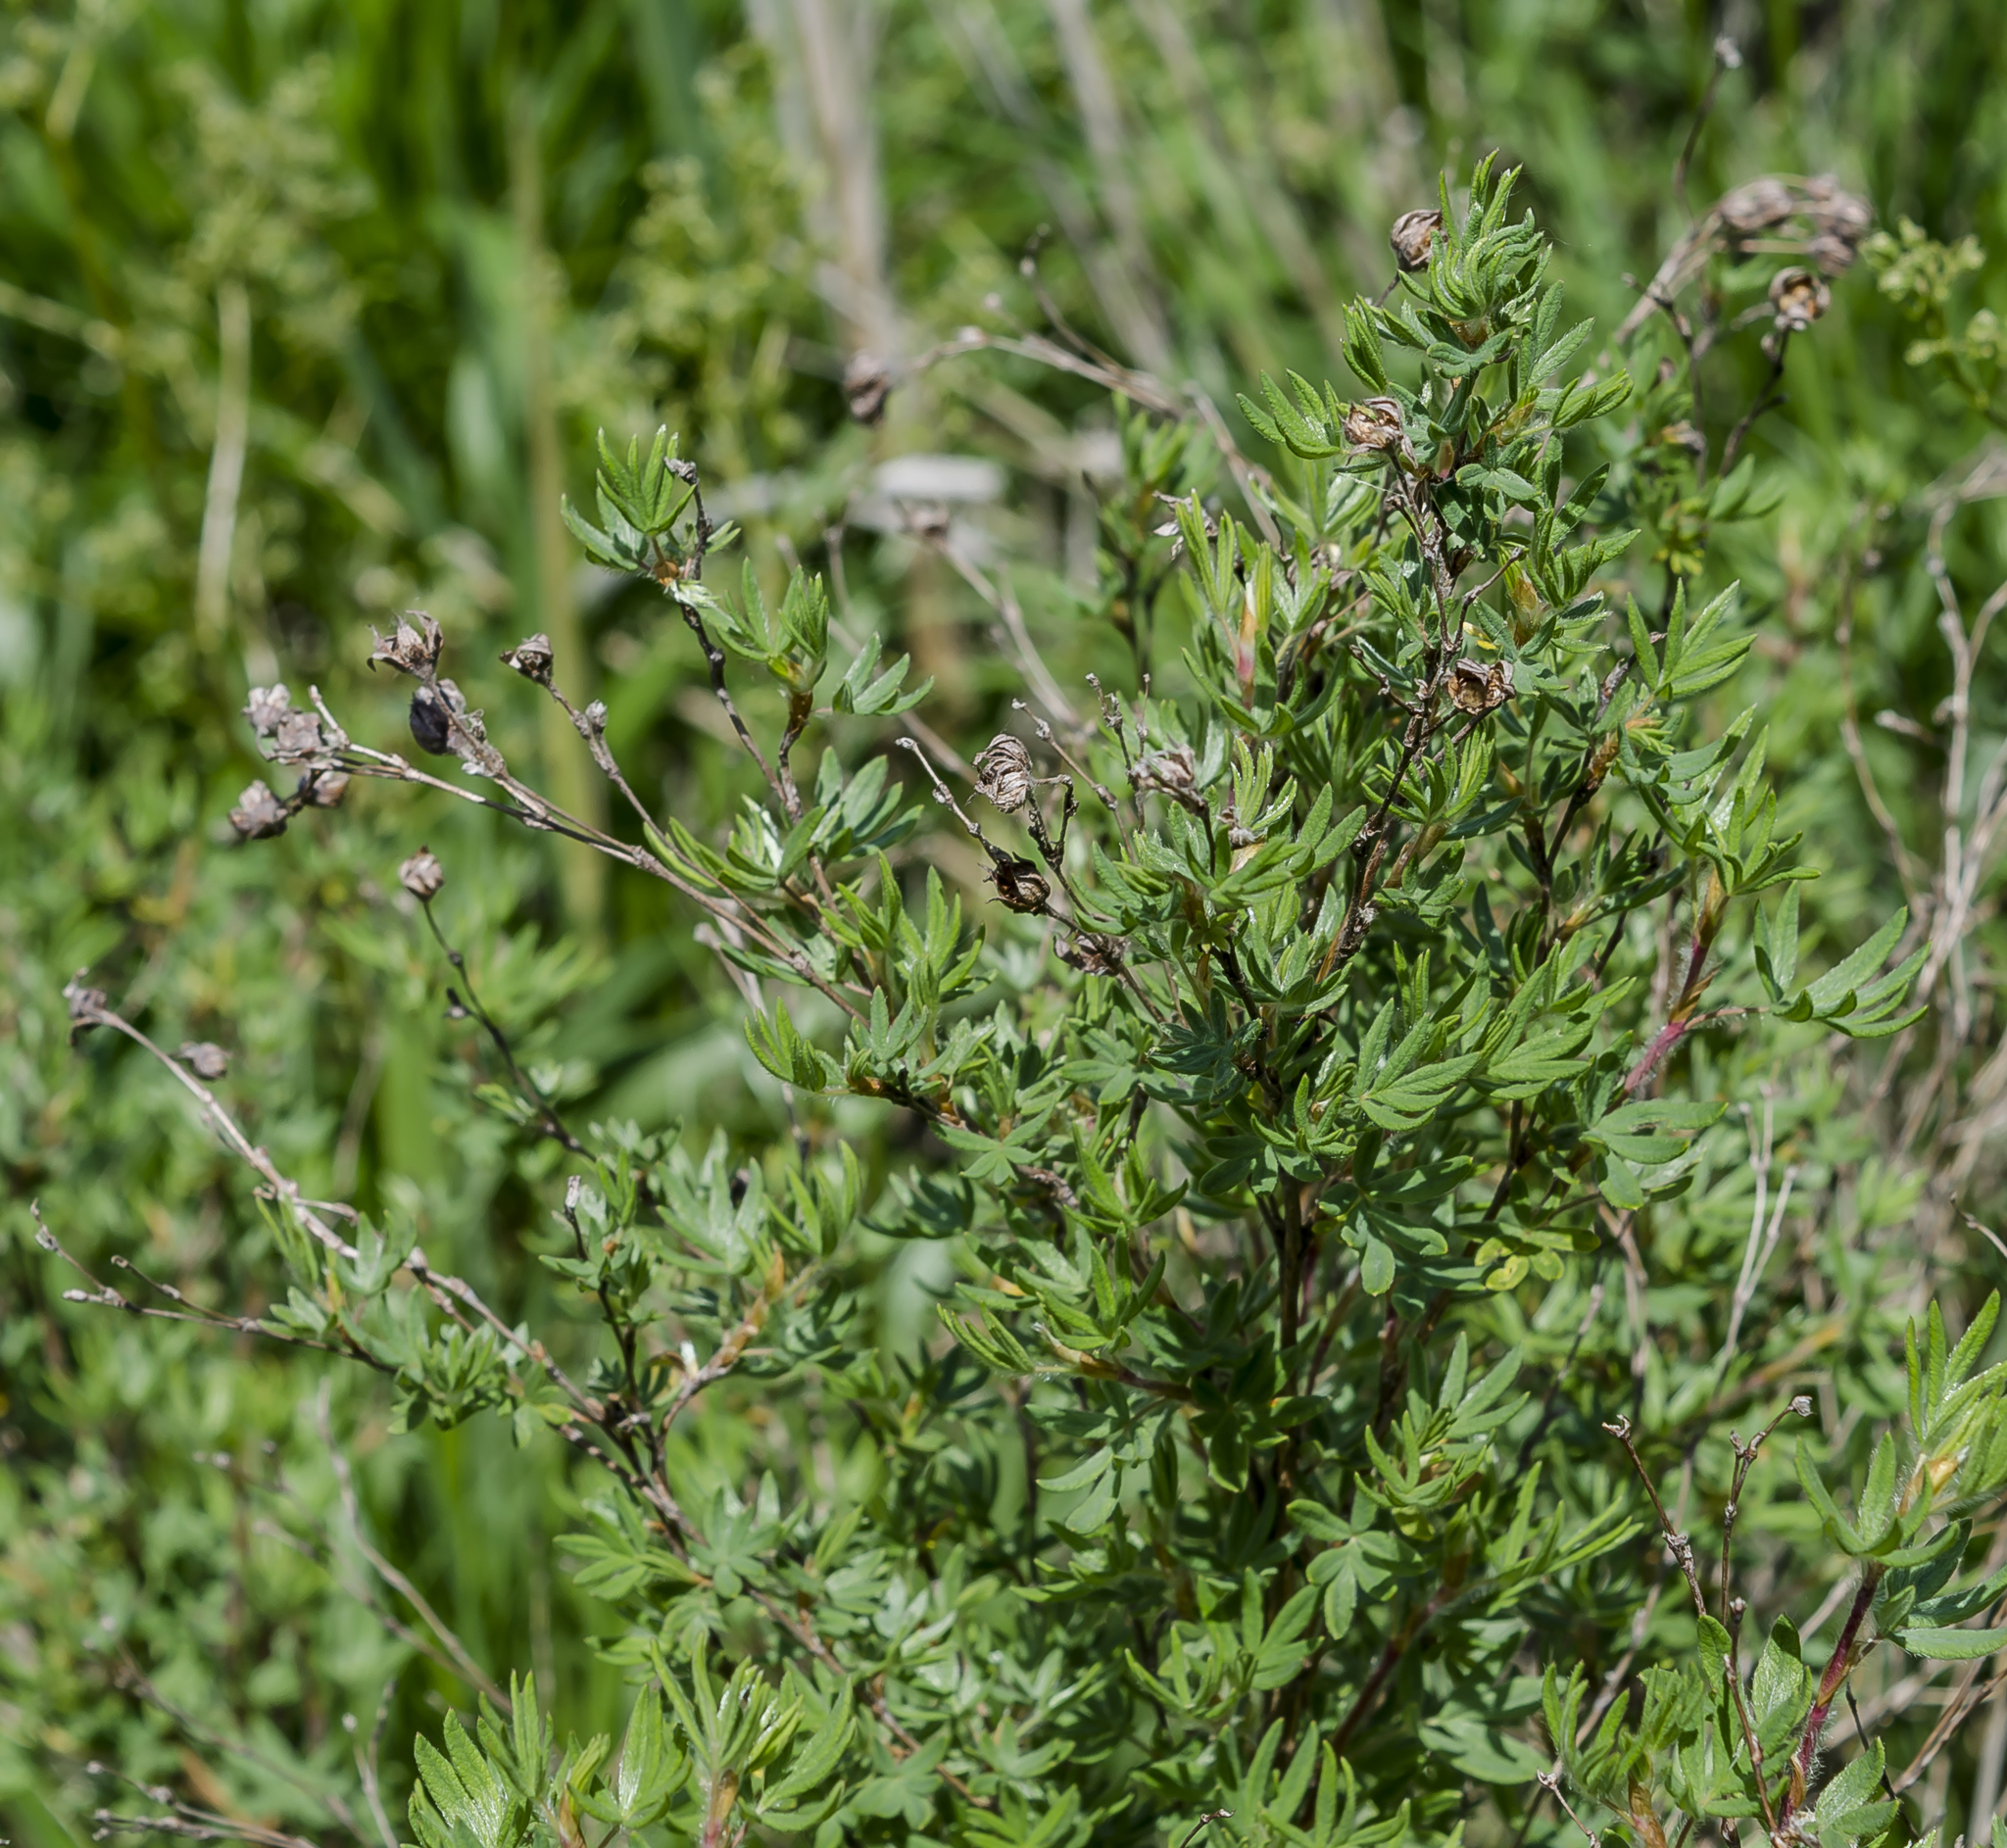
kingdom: Plantae
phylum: Tracheophyta
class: Magnoliopsida
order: Rosales
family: Rosaceae
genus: Dasiphora
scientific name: Dasiphora fruticosa
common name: Shrubby cinquefoil
